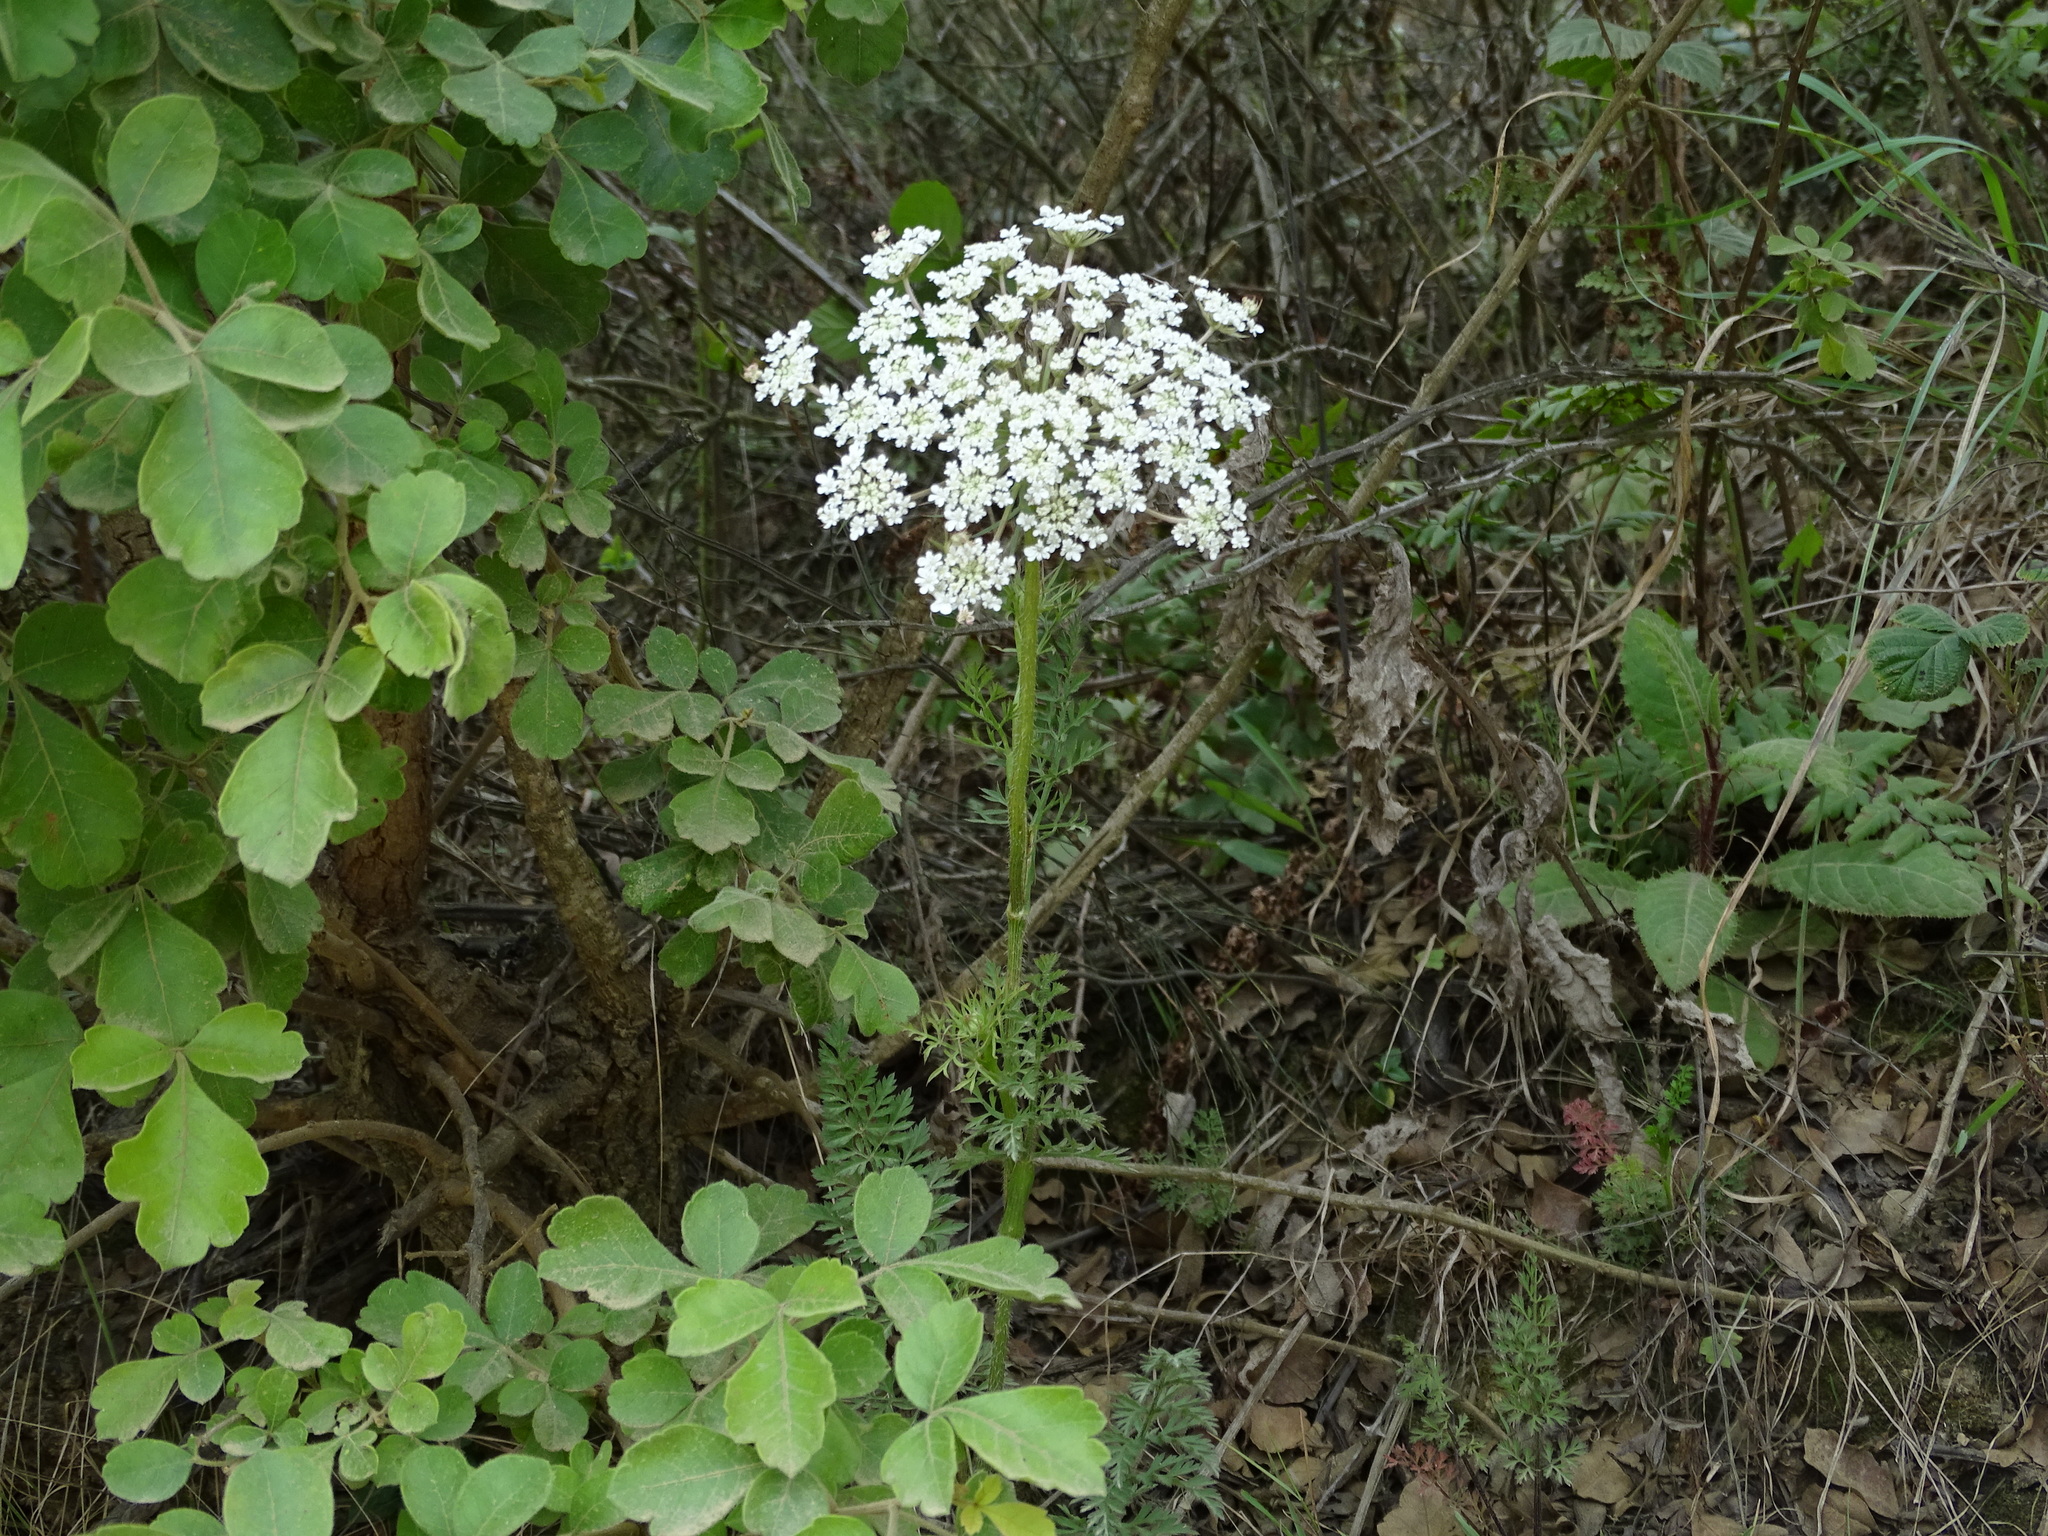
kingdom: Plantae
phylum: Tracheophyta
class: Magnoliopsida
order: Apiales
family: Apiaceae
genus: Daucus
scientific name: Daucus carota
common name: Wild carrot
